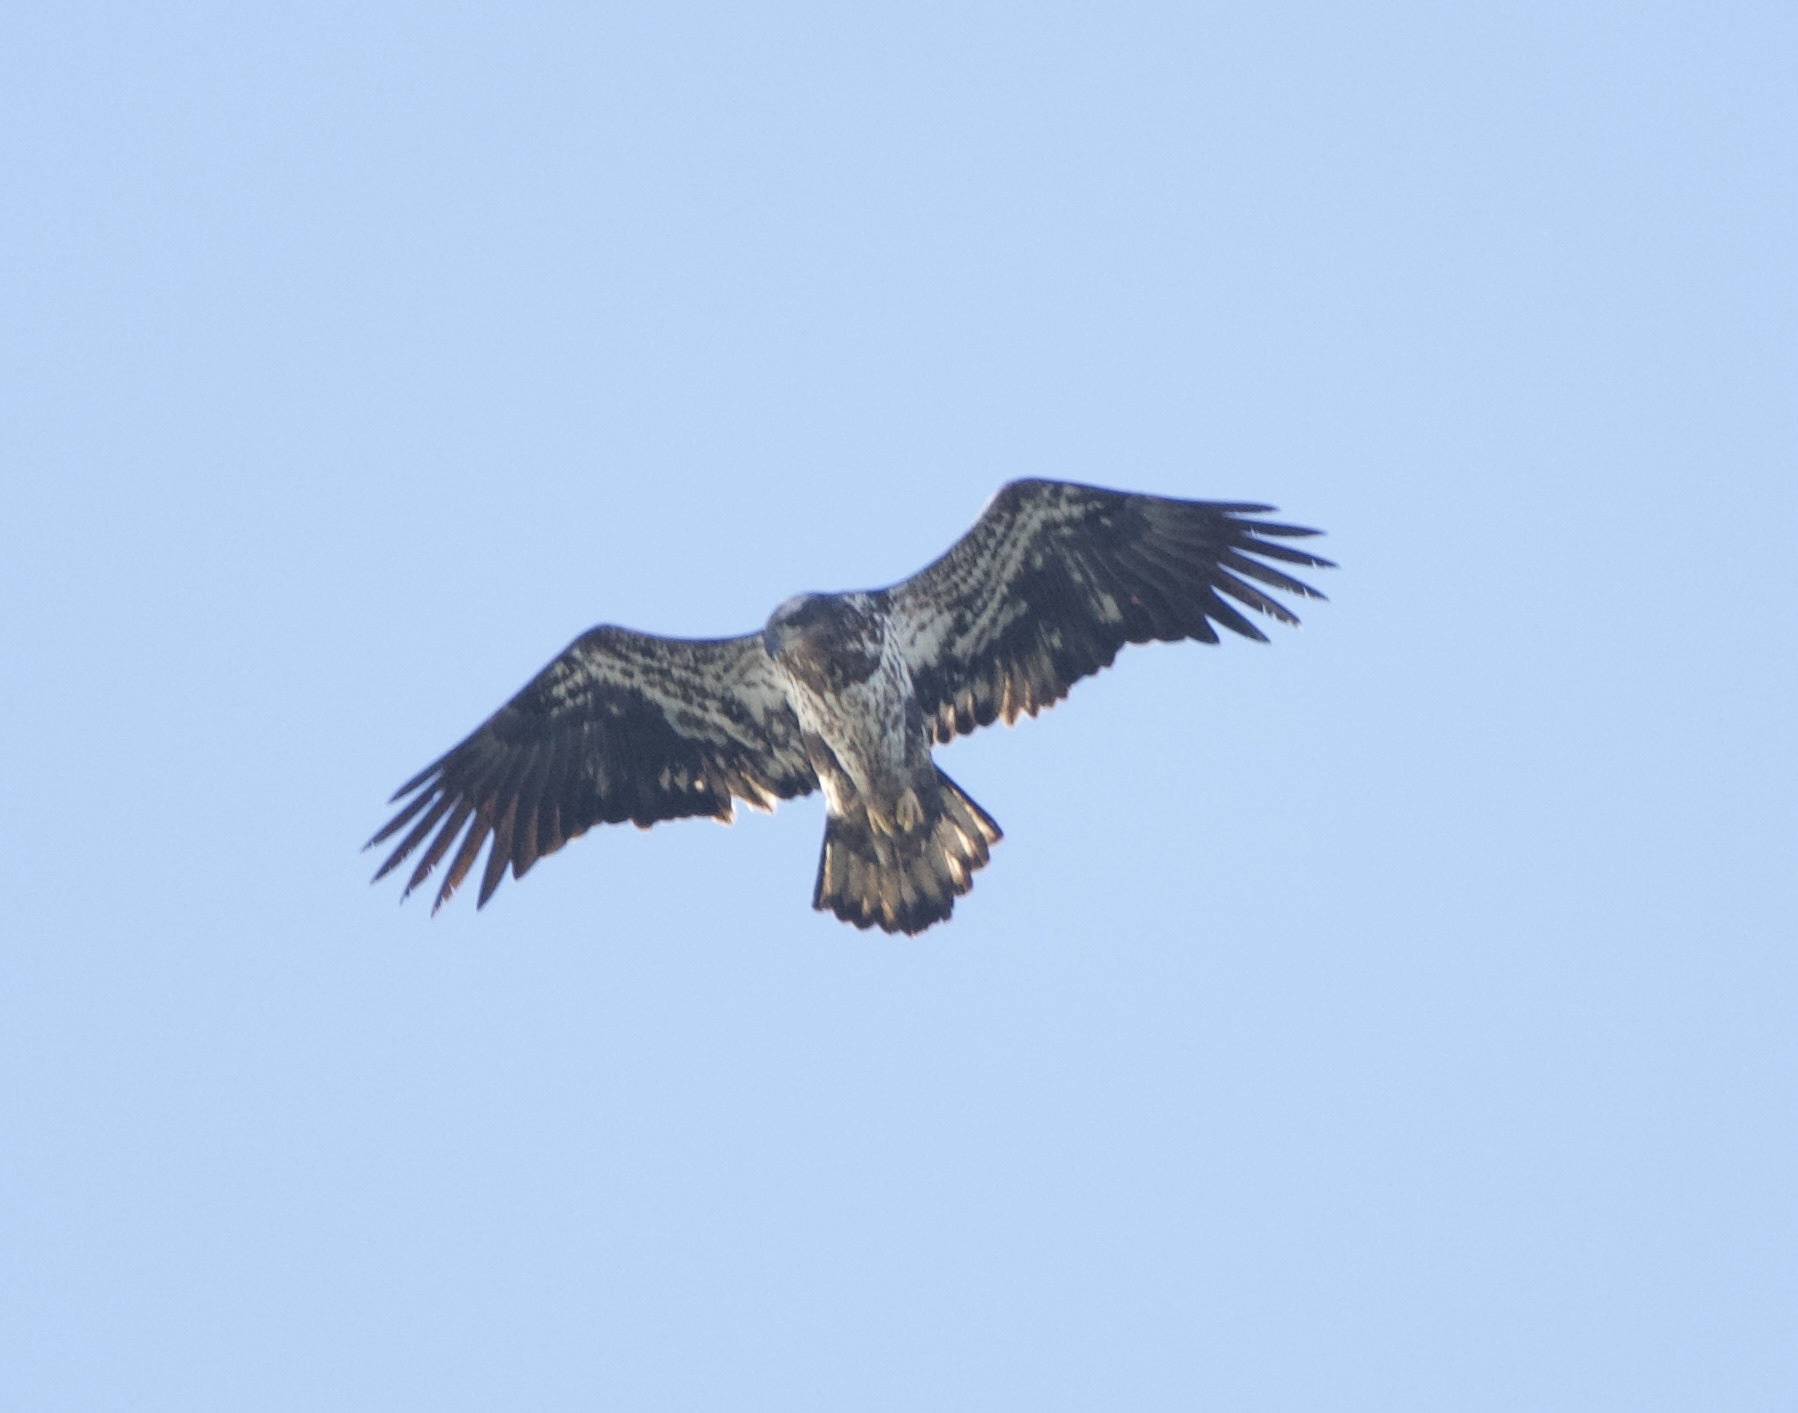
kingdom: Animalia
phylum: Chordata
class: Aves
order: Accipitriformes
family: Accipitridae
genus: Haliaeetus
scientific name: Haliaeetus leucocephalus
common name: Bald eagle
